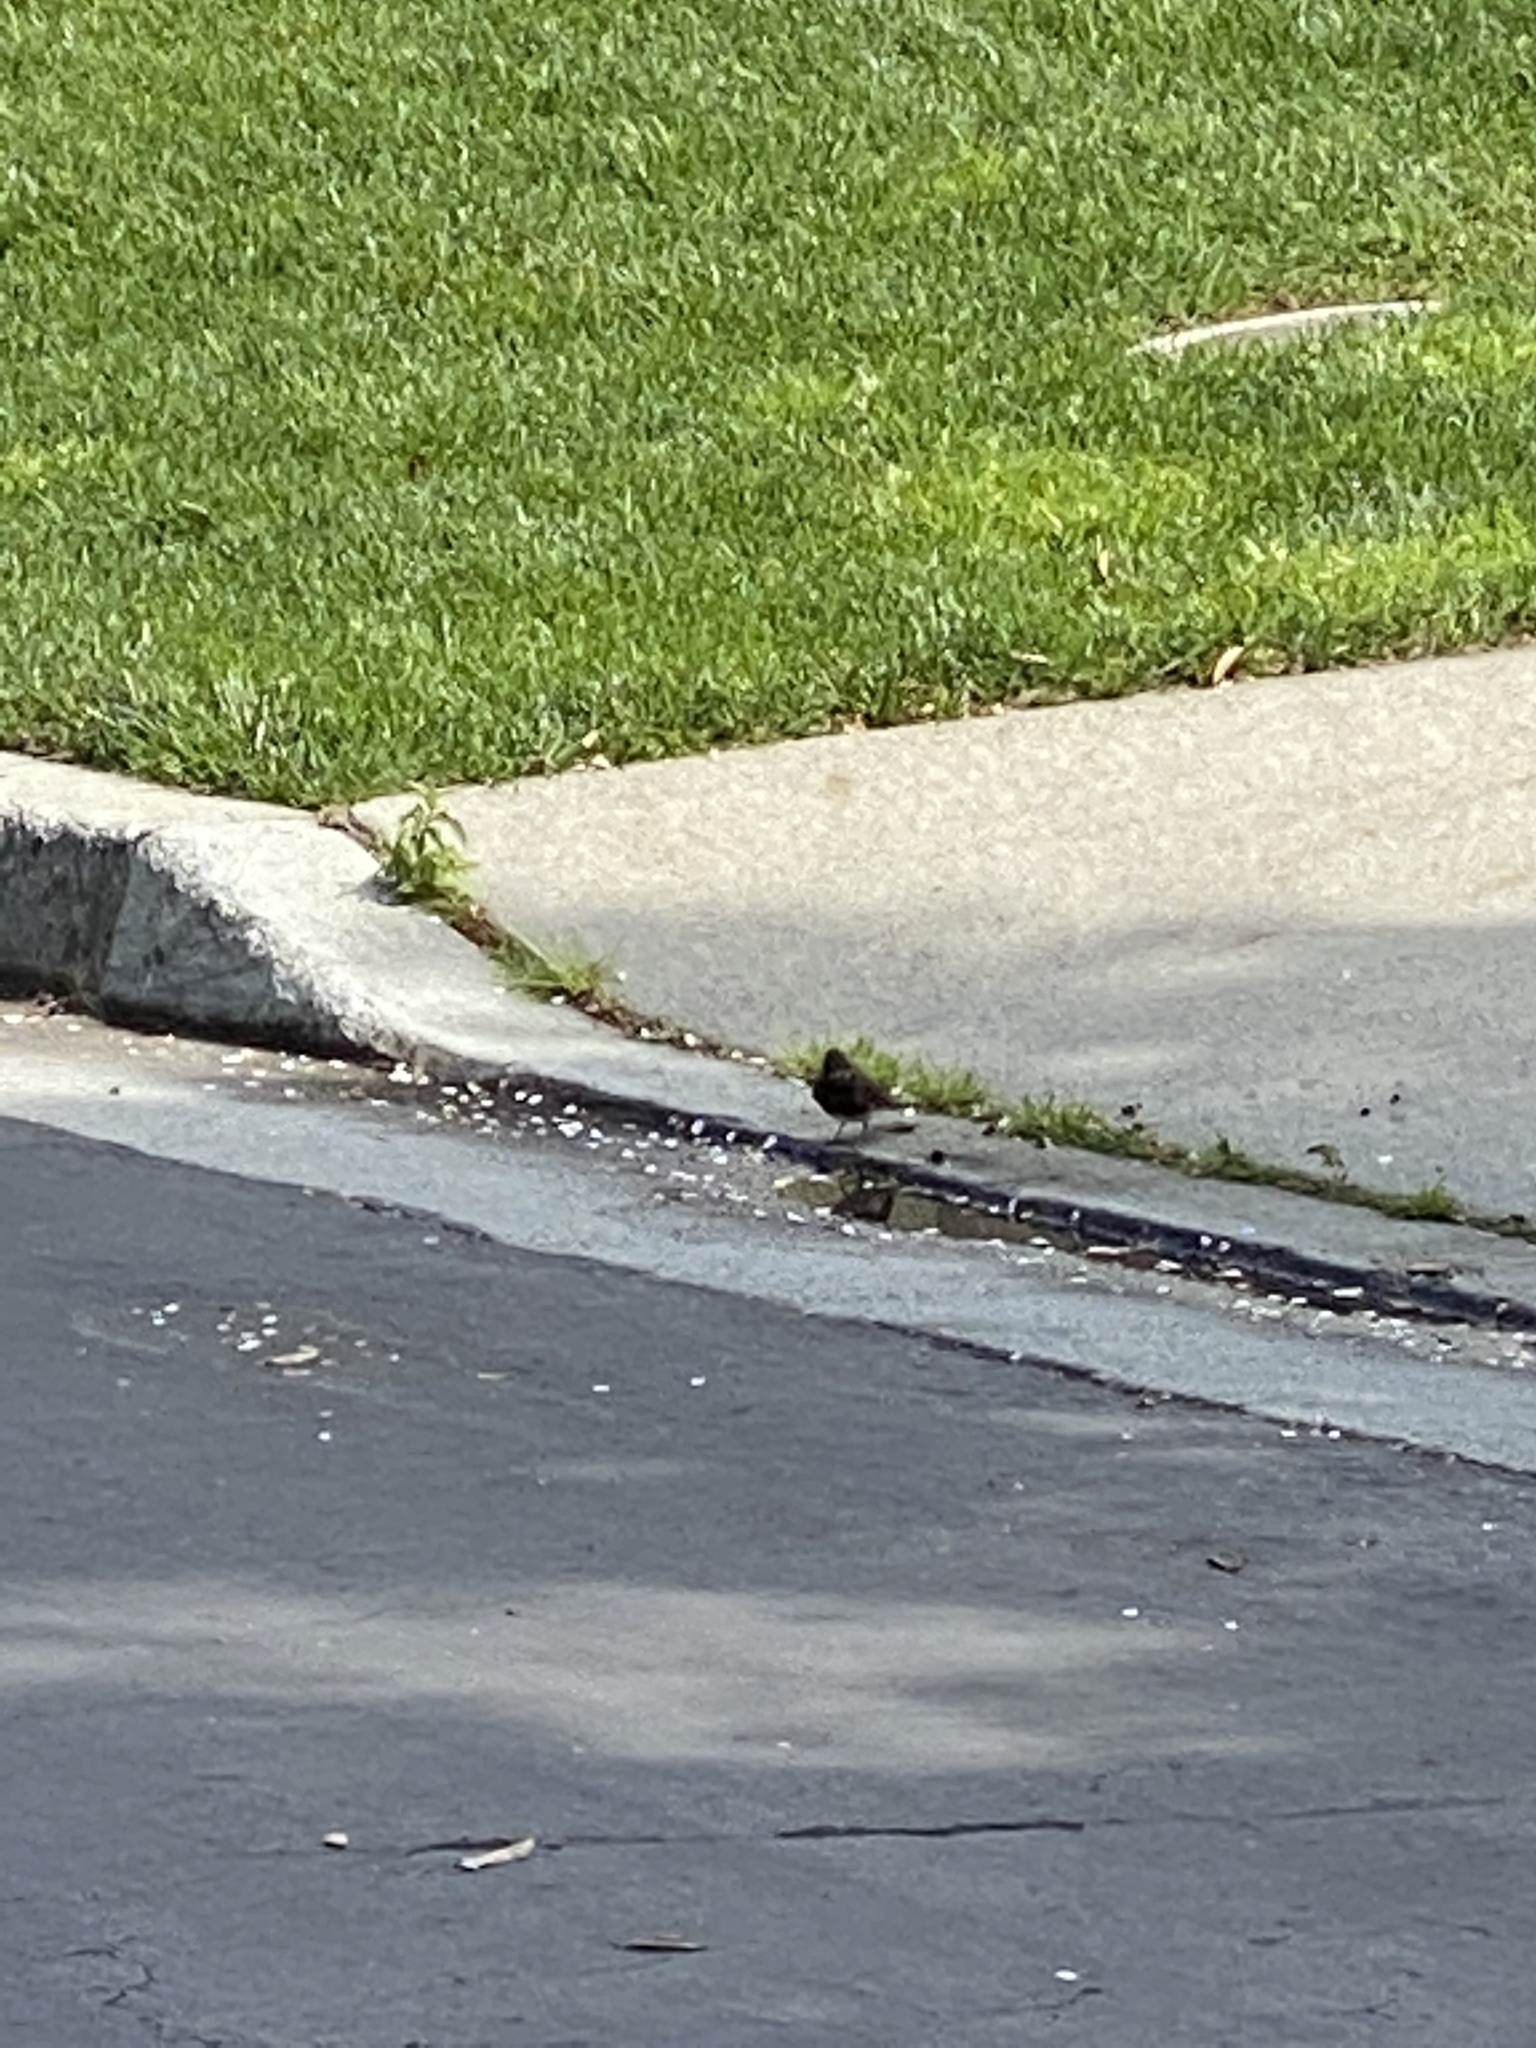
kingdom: Animalia
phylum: Chordata
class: Aves
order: Passeriformes
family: Tyrannidae
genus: Sayornis
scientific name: Sayornis nigricans
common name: Black phoebe
